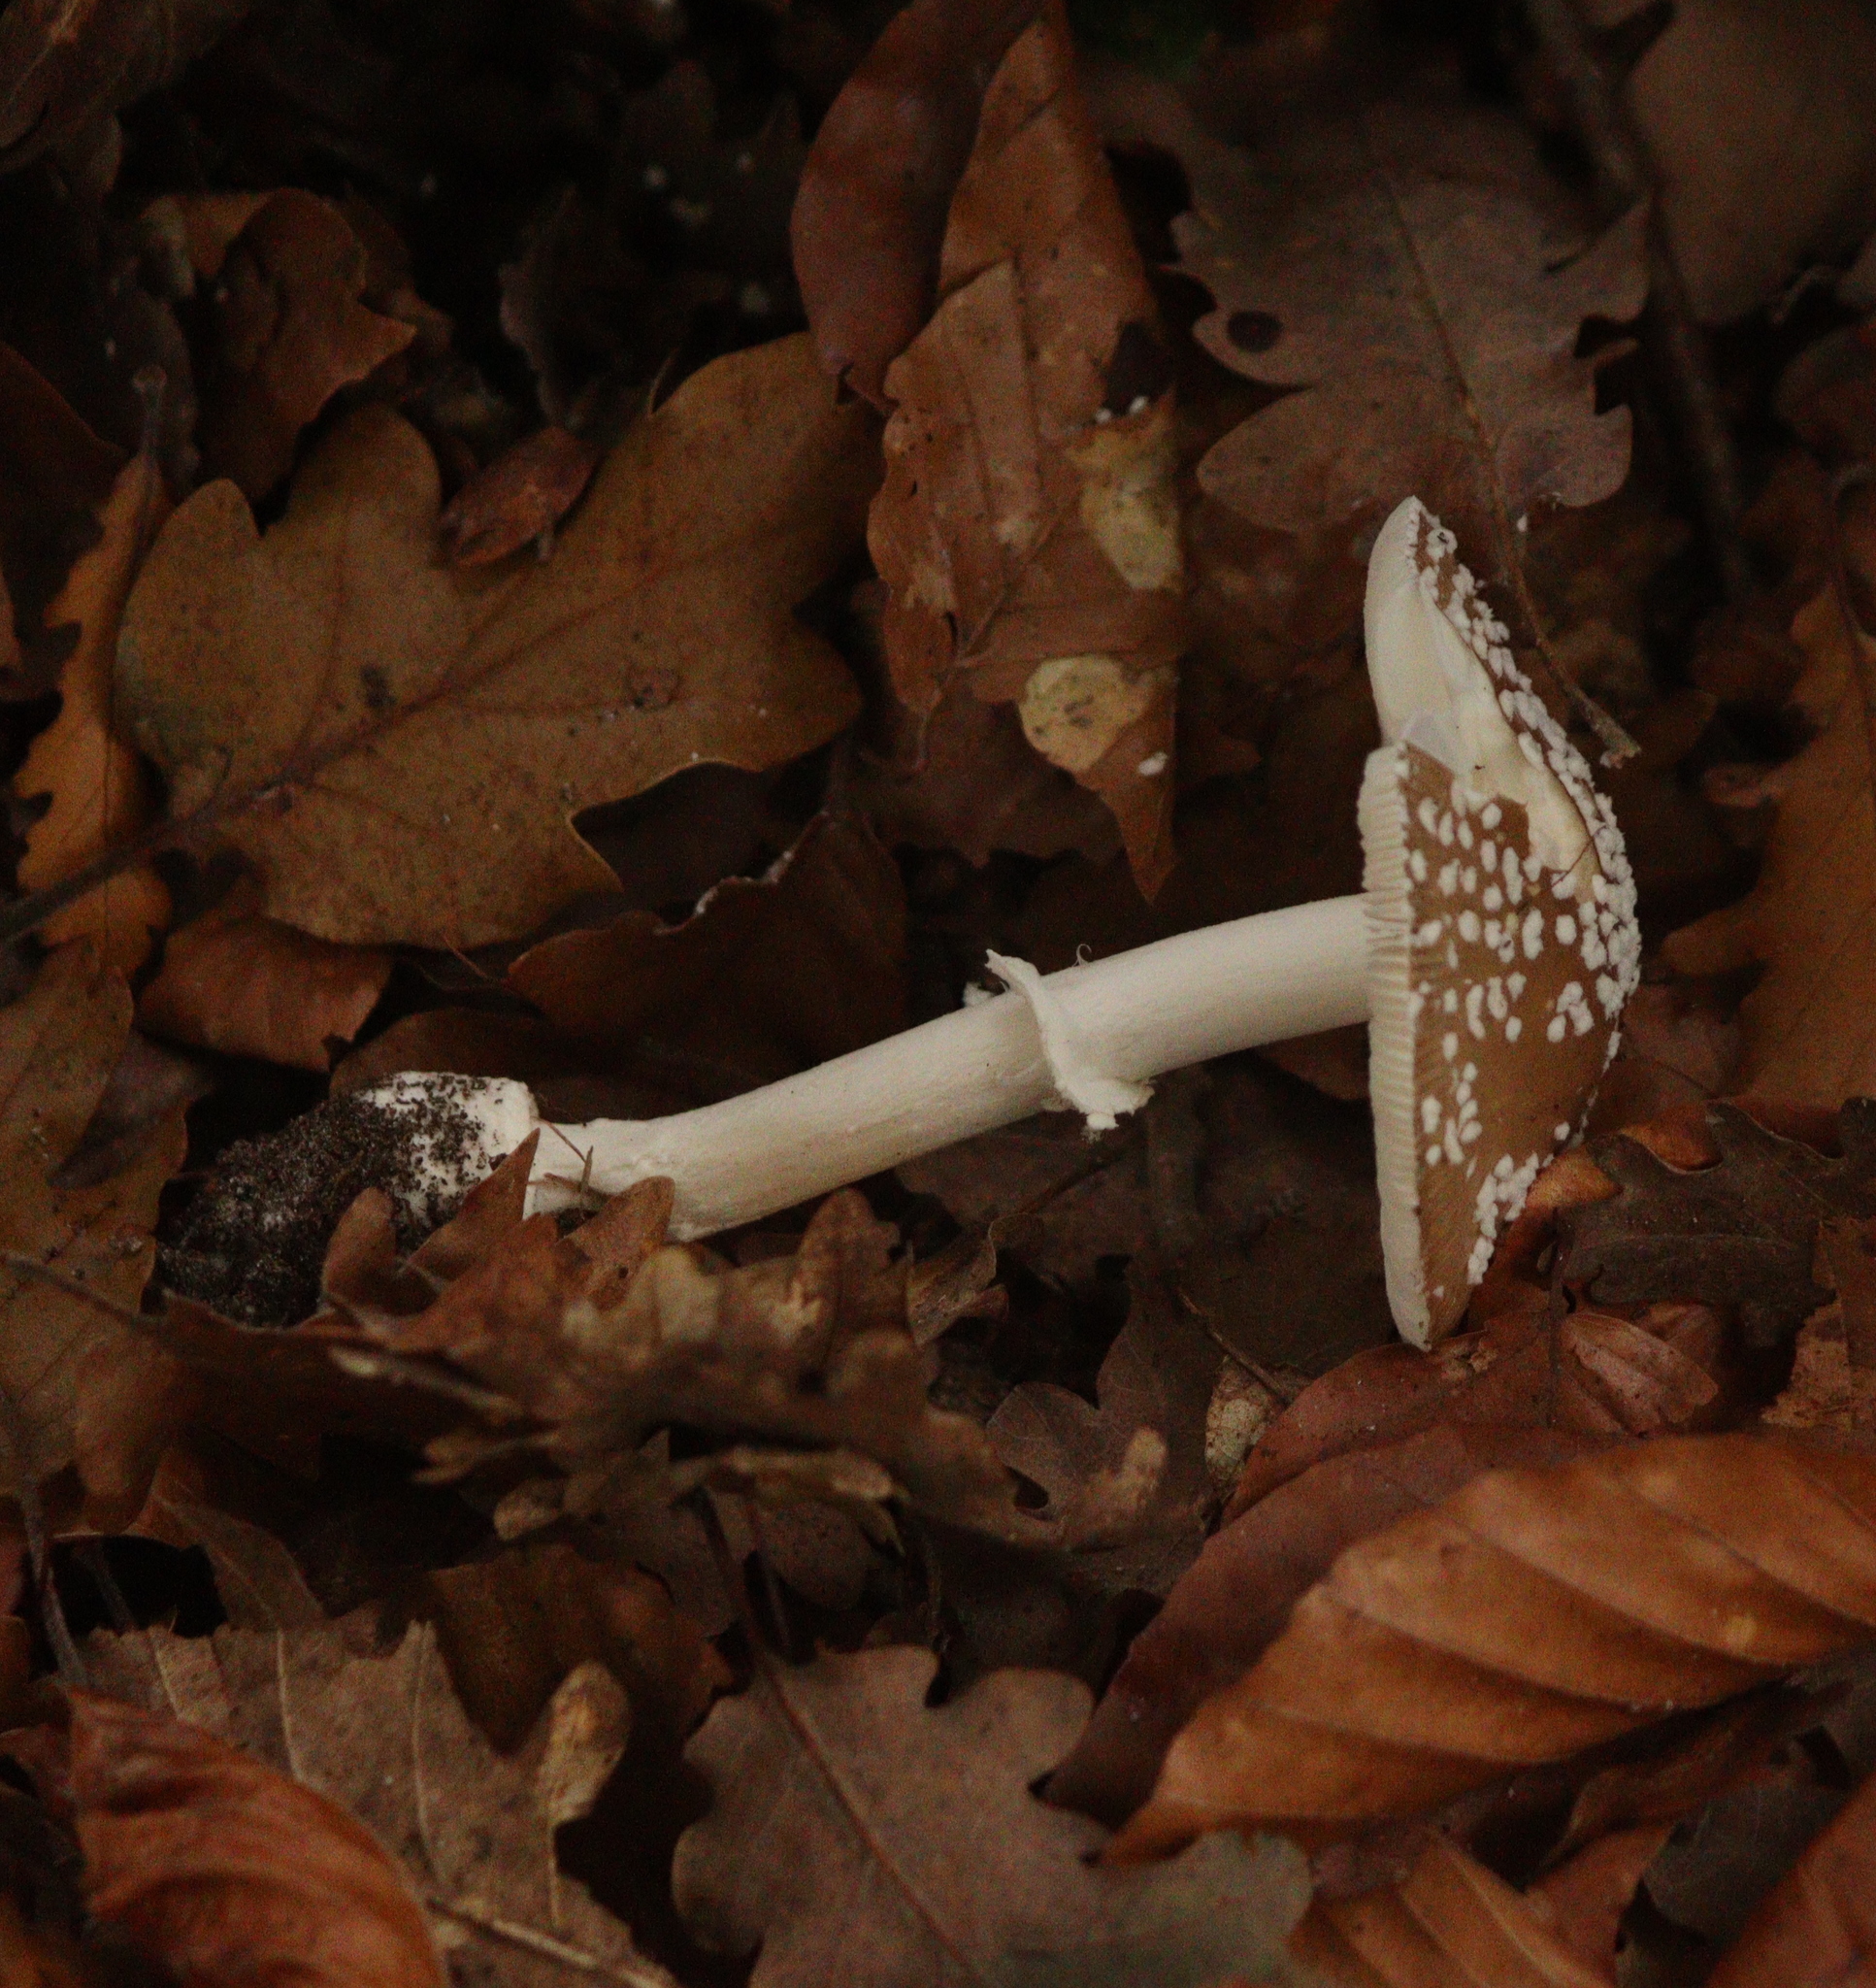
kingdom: Fungi
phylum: Basidiomycota
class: Agaricomycetes
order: Agaricales
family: Amanitaceae
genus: Amanita
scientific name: Amanita pantherina
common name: Panthercap
